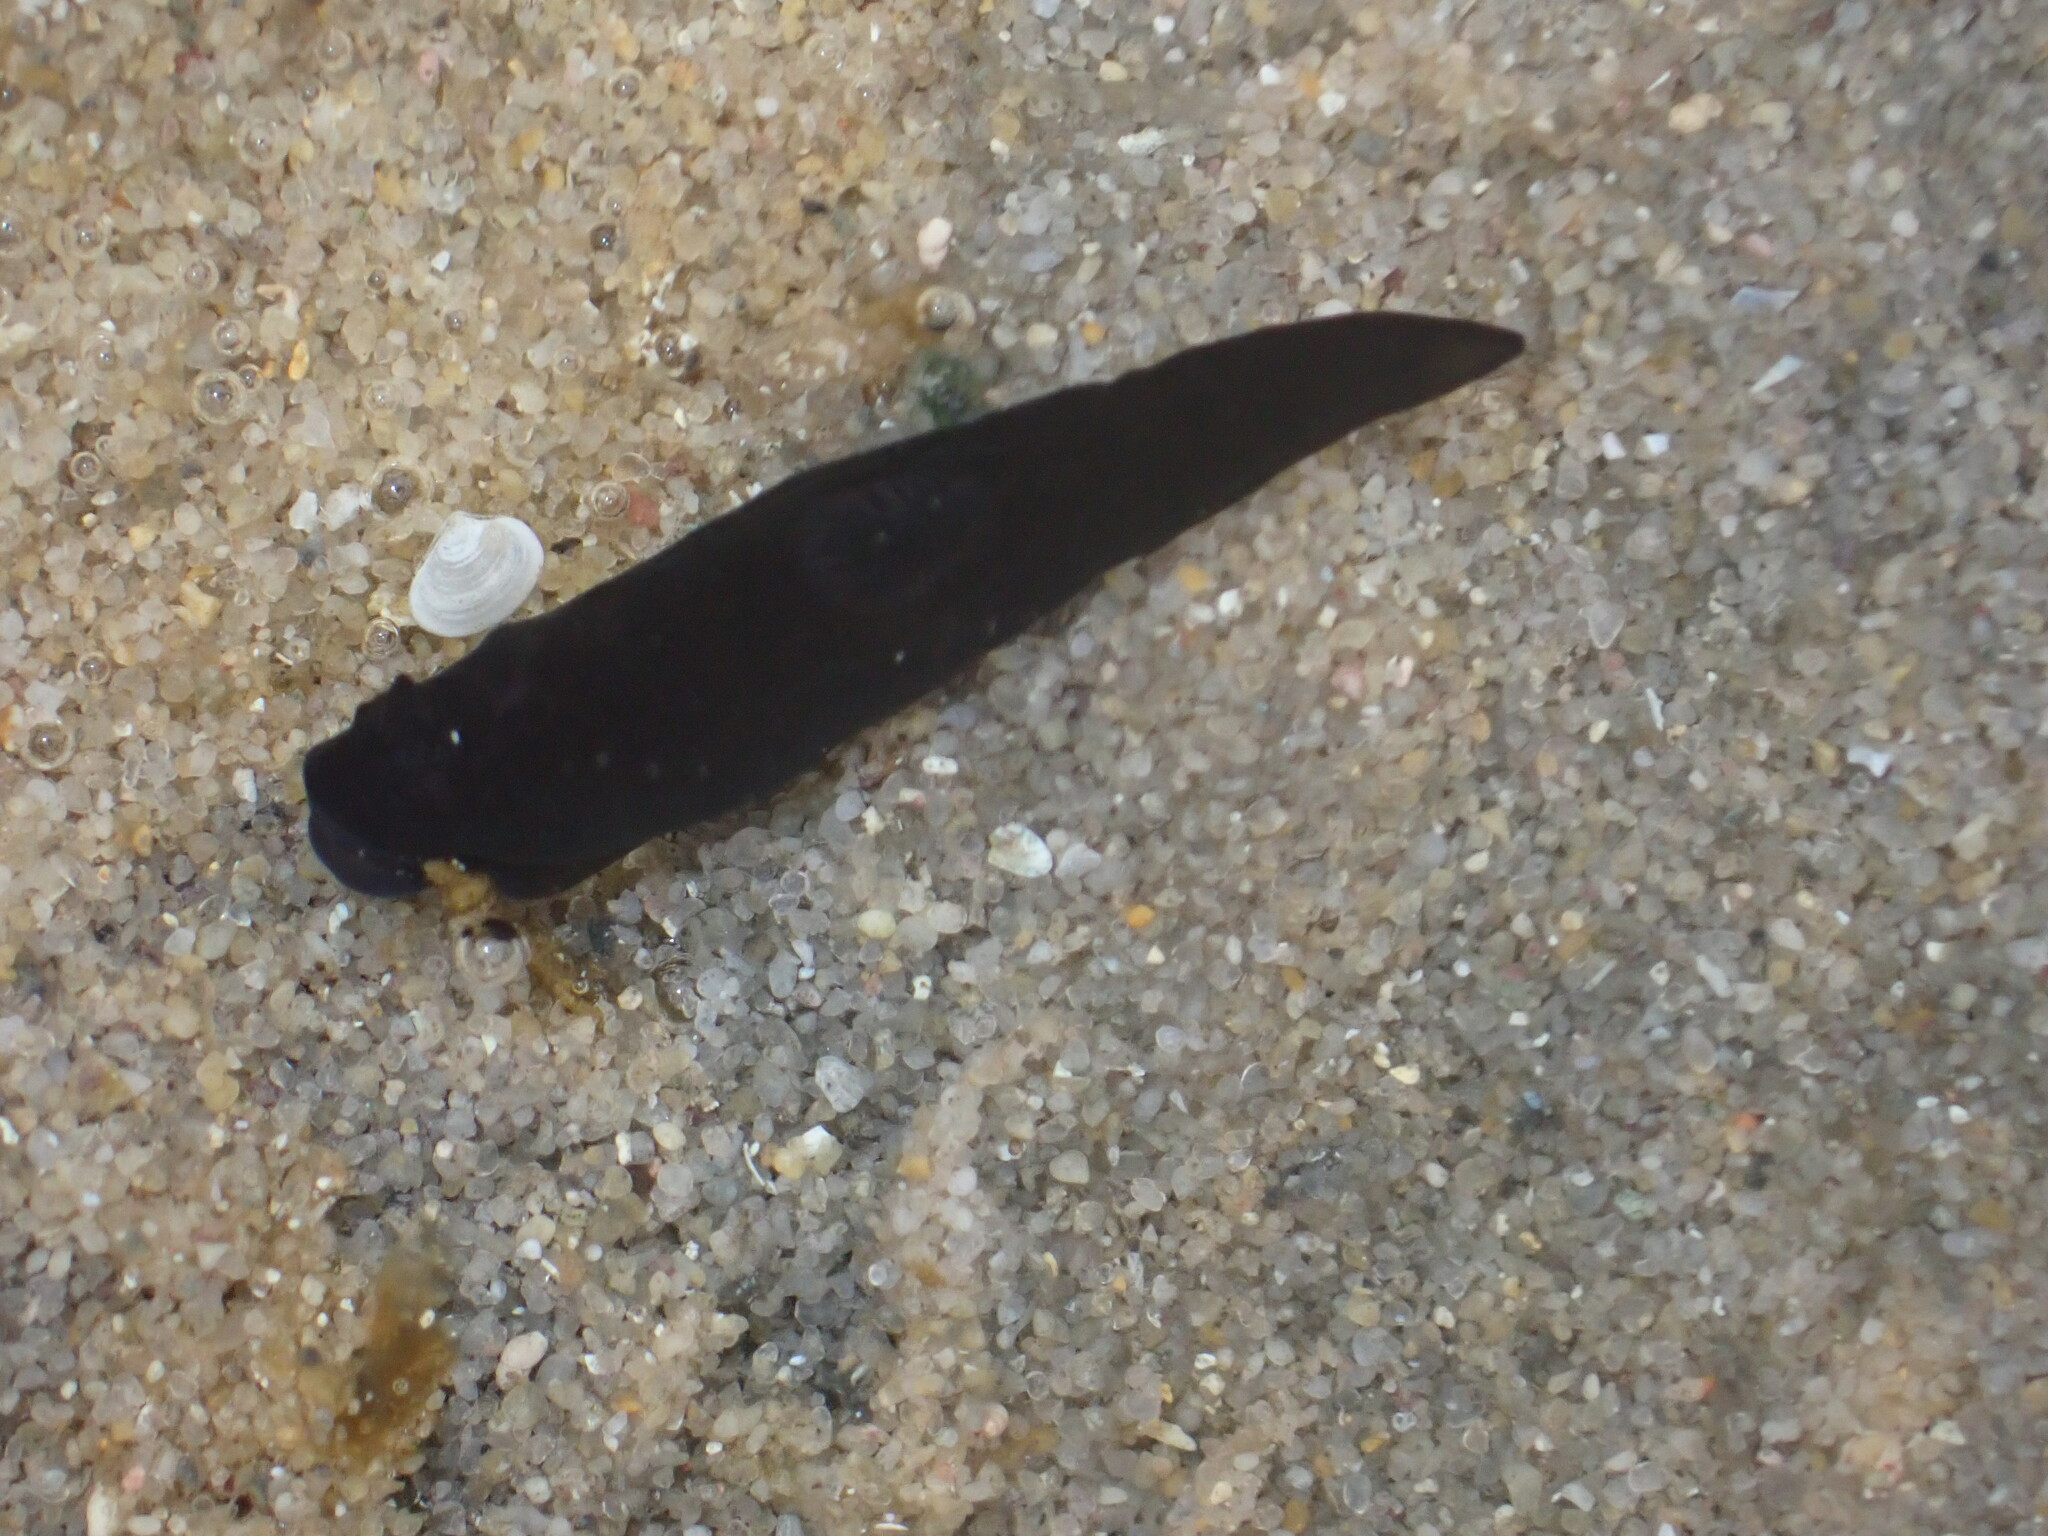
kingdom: Animalia
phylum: Mollusca
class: Gastropoda
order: Nudibranchia
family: Polyceridae
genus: Gymnodoris
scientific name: Gymnodoris nigricolor
